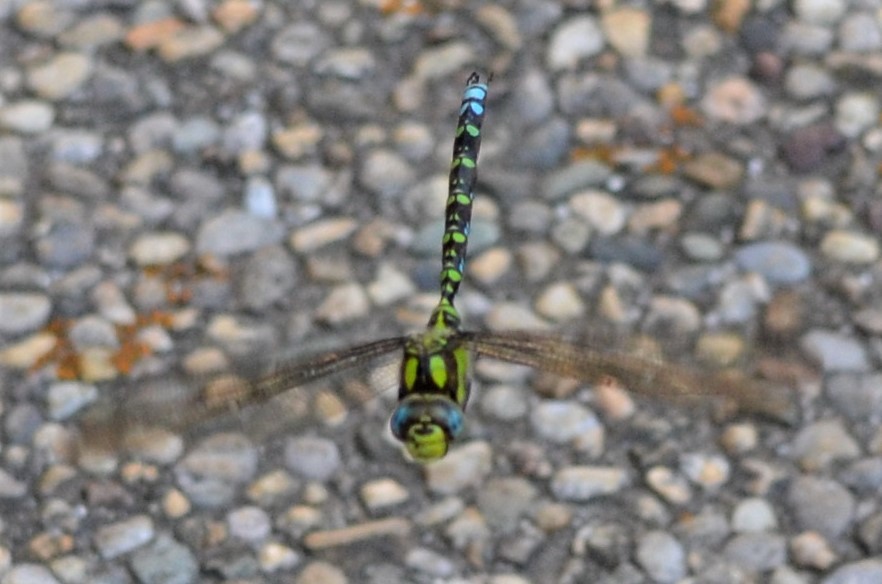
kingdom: Animalia
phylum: Arthropoda
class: Insecta
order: Odonata
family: Aeshnidae
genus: Aeshna
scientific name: Aeshna cyanea
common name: Southern hawker
